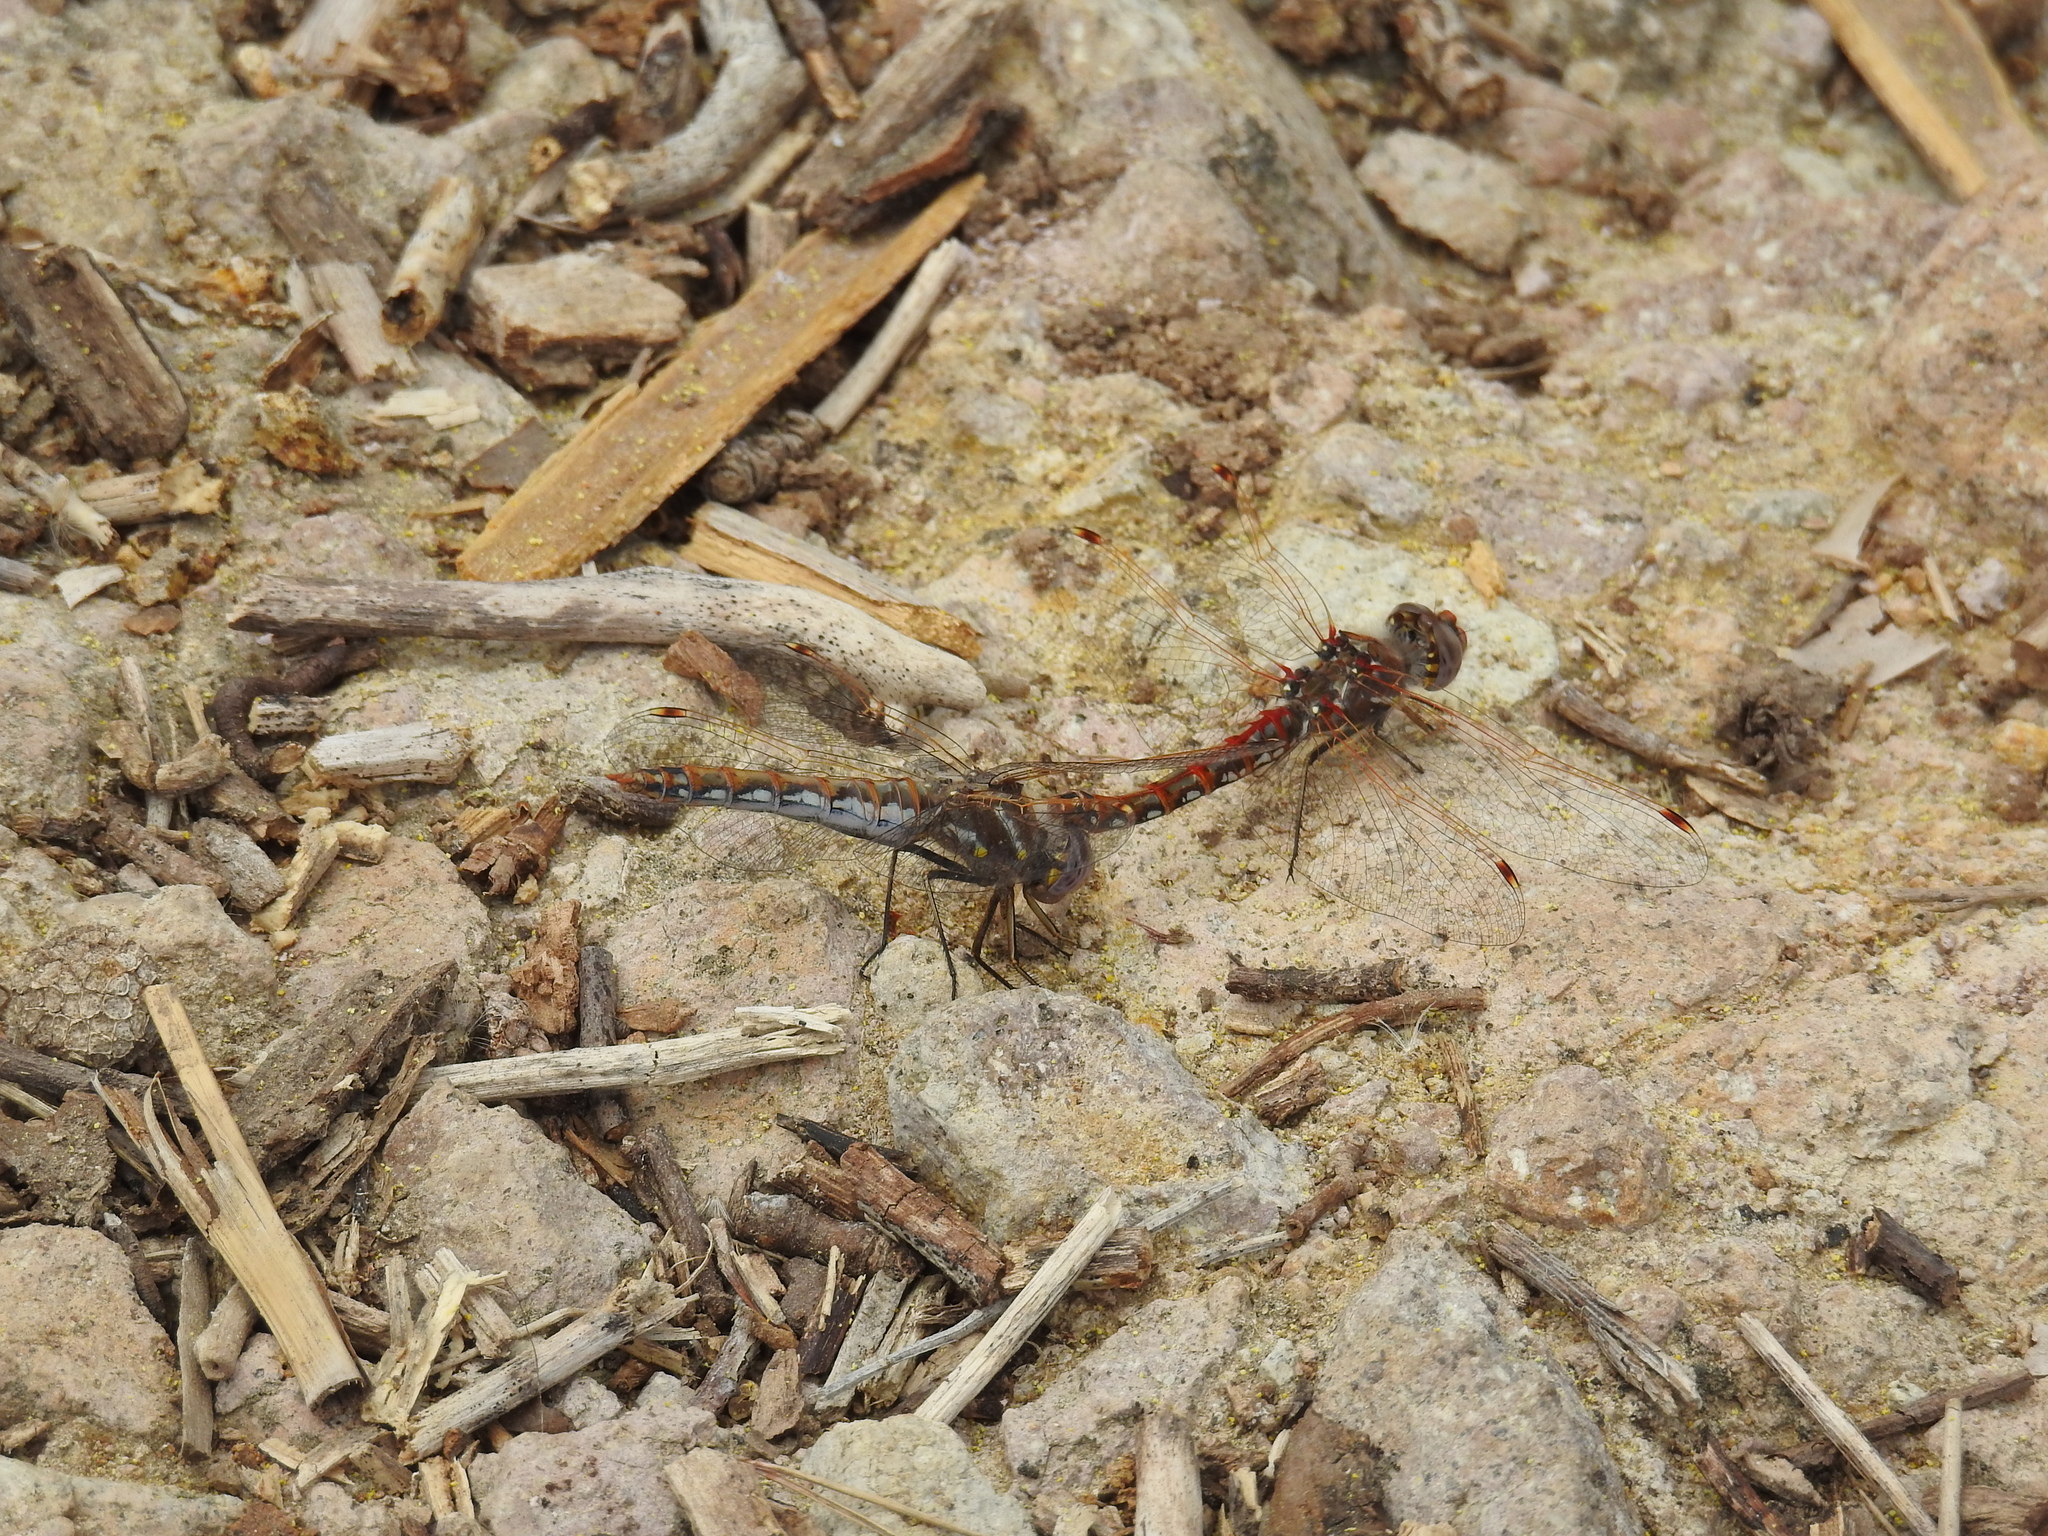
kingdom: Animalia
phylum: Arthropoda
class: Insecta
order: Odonata
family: Libellulidae
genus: Sympetrum
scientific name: Sympetrum corruptum
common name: Variegated meadowhawk
